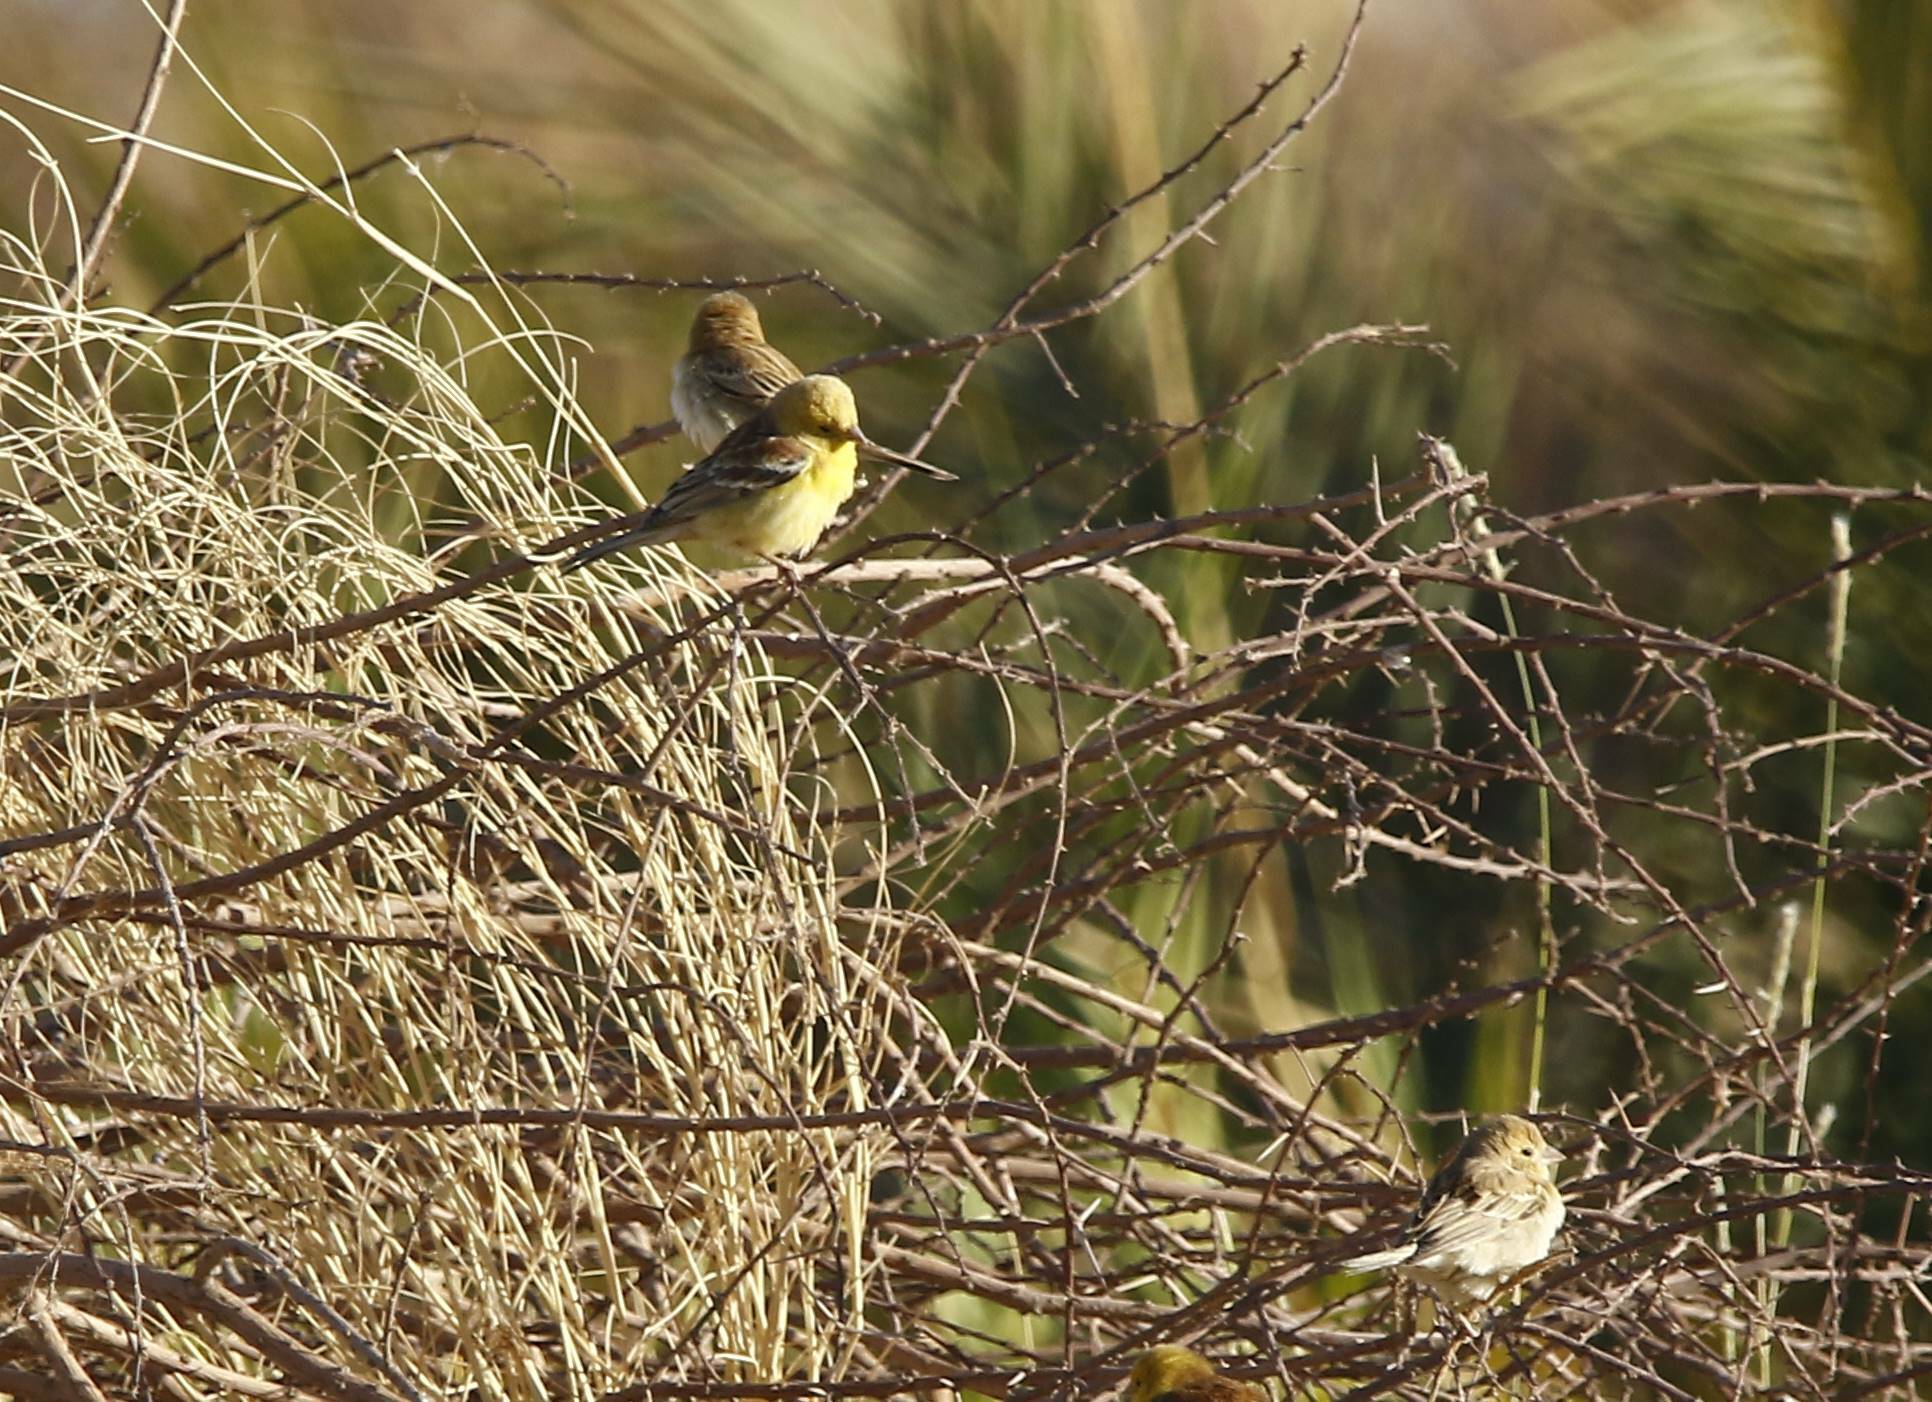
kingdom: Animalia
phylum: Chordata
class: Aves
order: Passeriformes
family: Passeridae
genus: Passer
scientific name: Passer luteus
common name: Sudan golden sparrow
